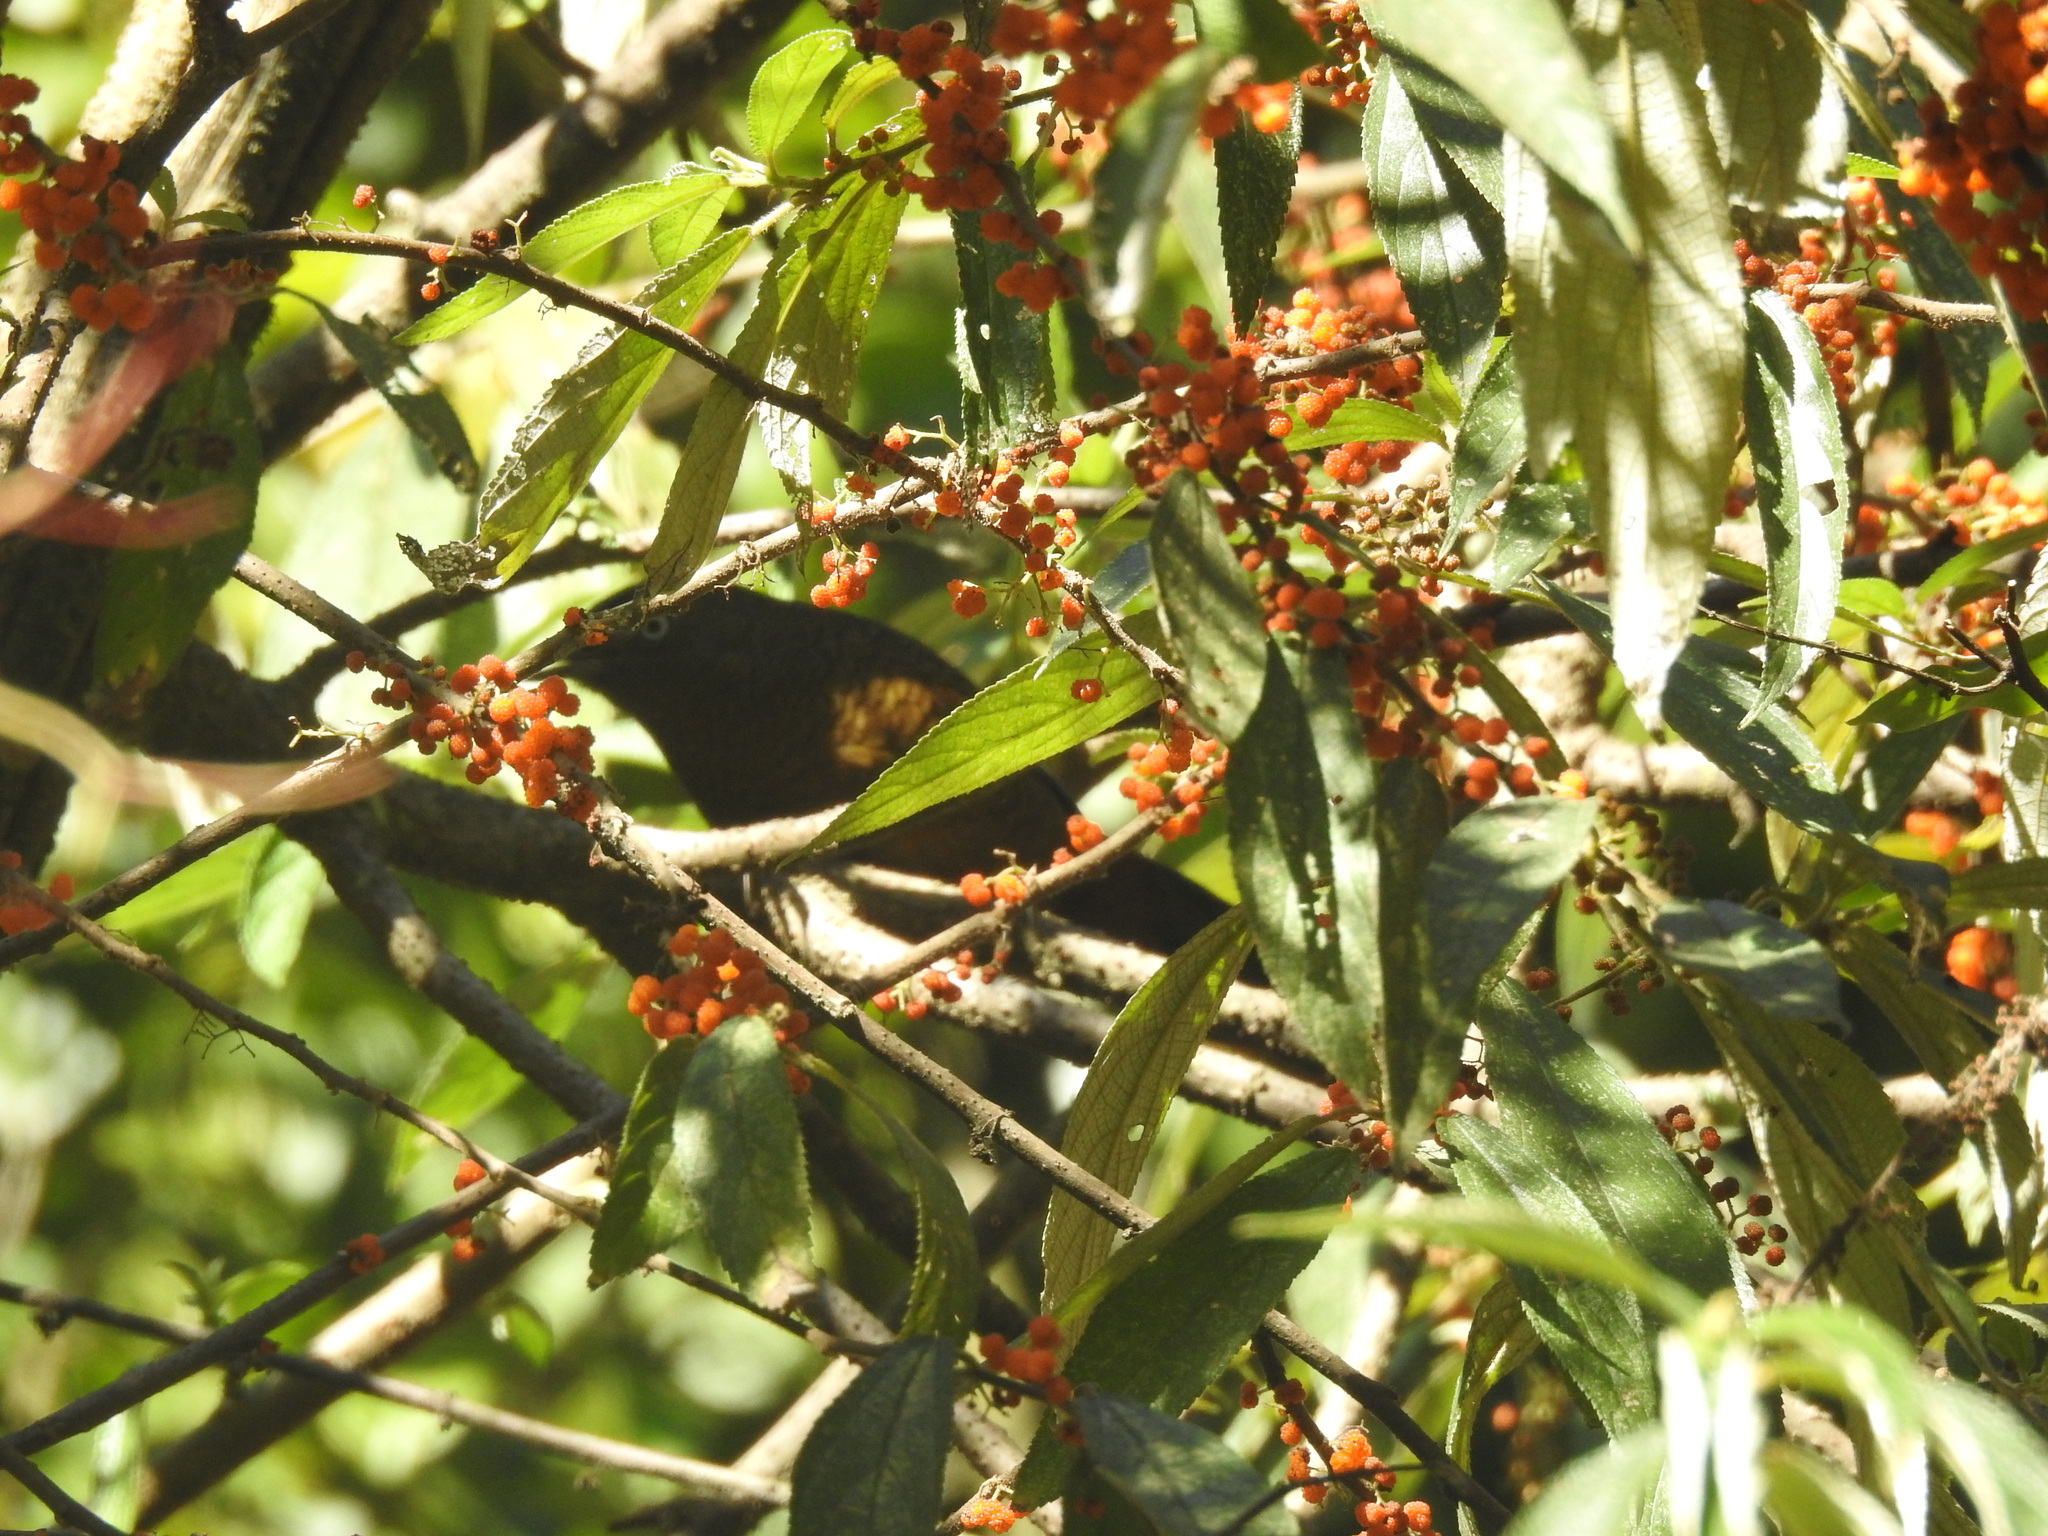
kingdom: Animalia
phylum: Chordata
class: Aves
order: Passeriformes
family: Leiothrichidae
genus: Trochalopteron
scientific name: Trochalopteron squamatum
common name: Blue-winged laughingthrush
